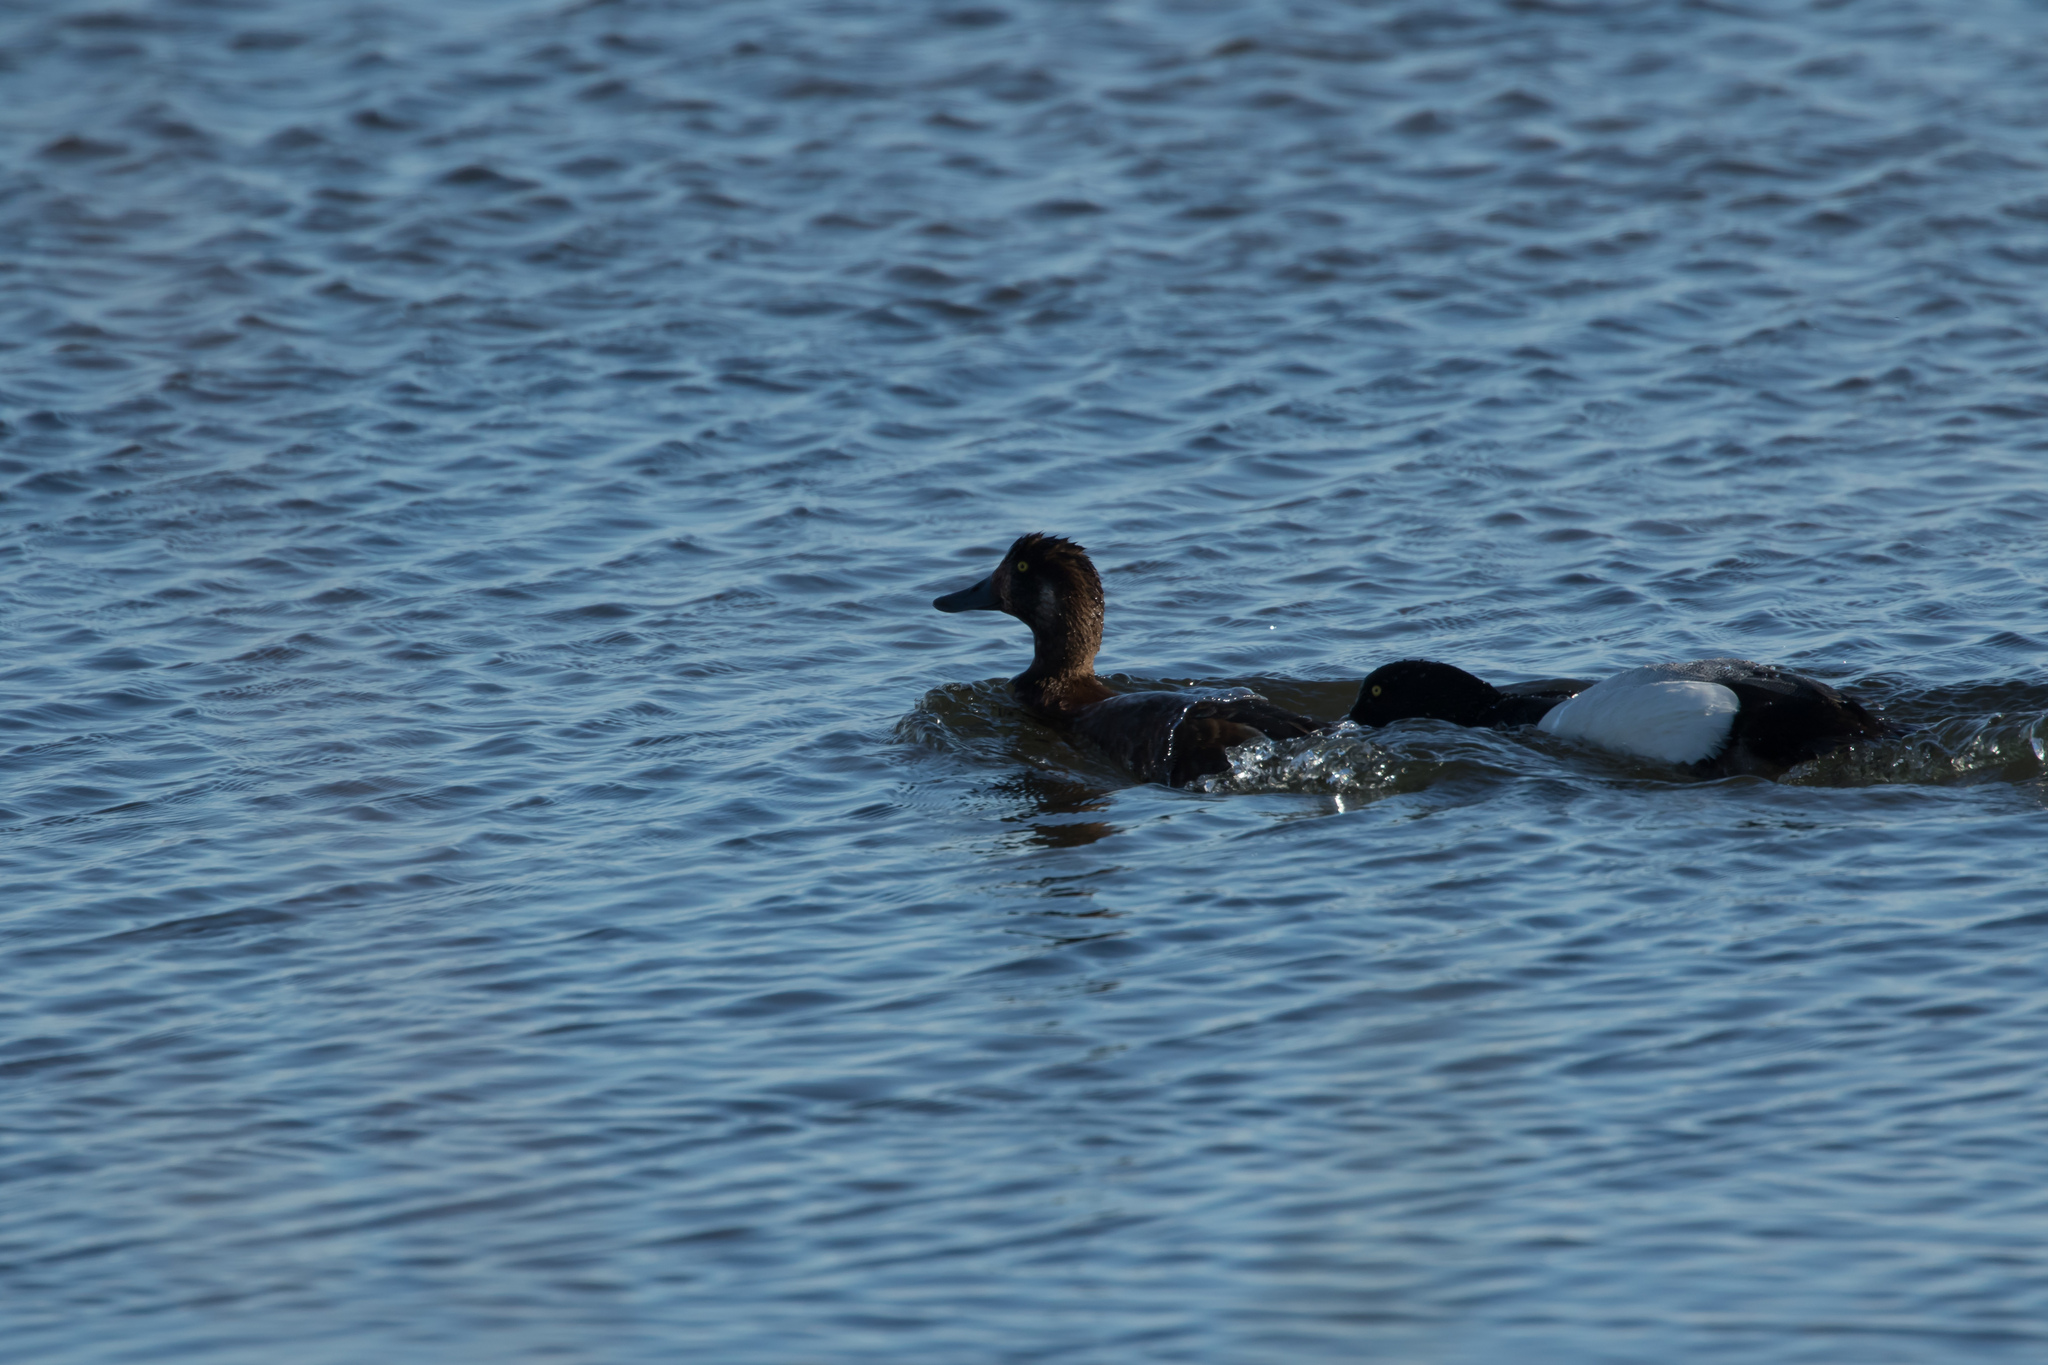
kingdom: Animalia
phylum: Chordata
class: Aves
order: Anseriformes
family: Anatidae
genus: Aythya
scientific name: Aythya marila
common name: Greater scaup
